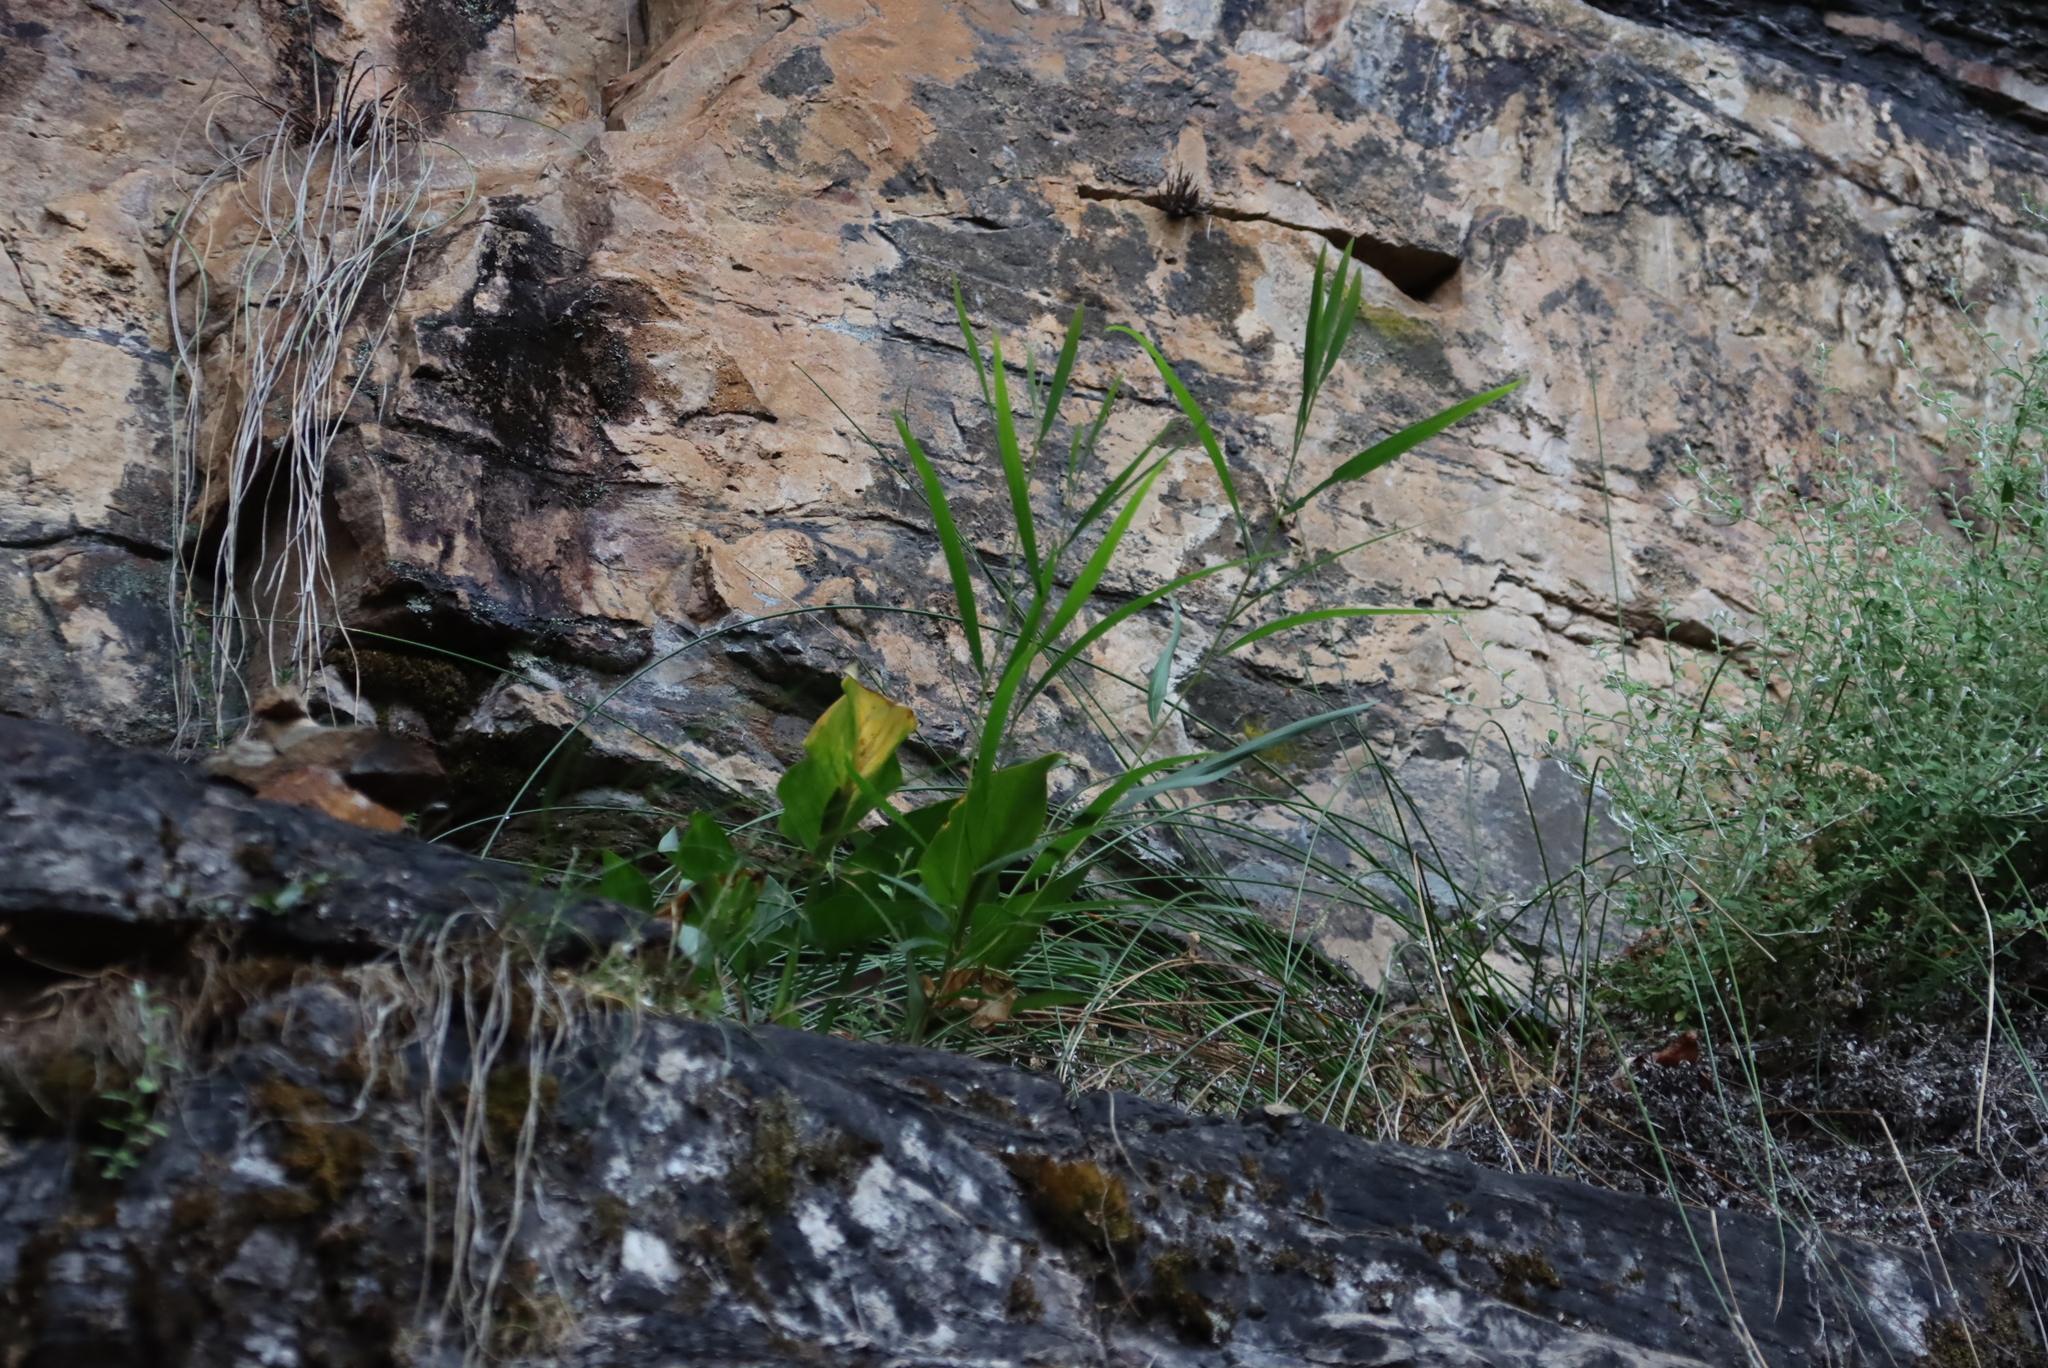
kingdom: Plantae
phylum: Tracheophyta
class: Magnoliopsida
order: Fabales
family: Fabaceae
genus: Acacia
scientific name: Acacia longifolia
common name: Sydney golden wattle
